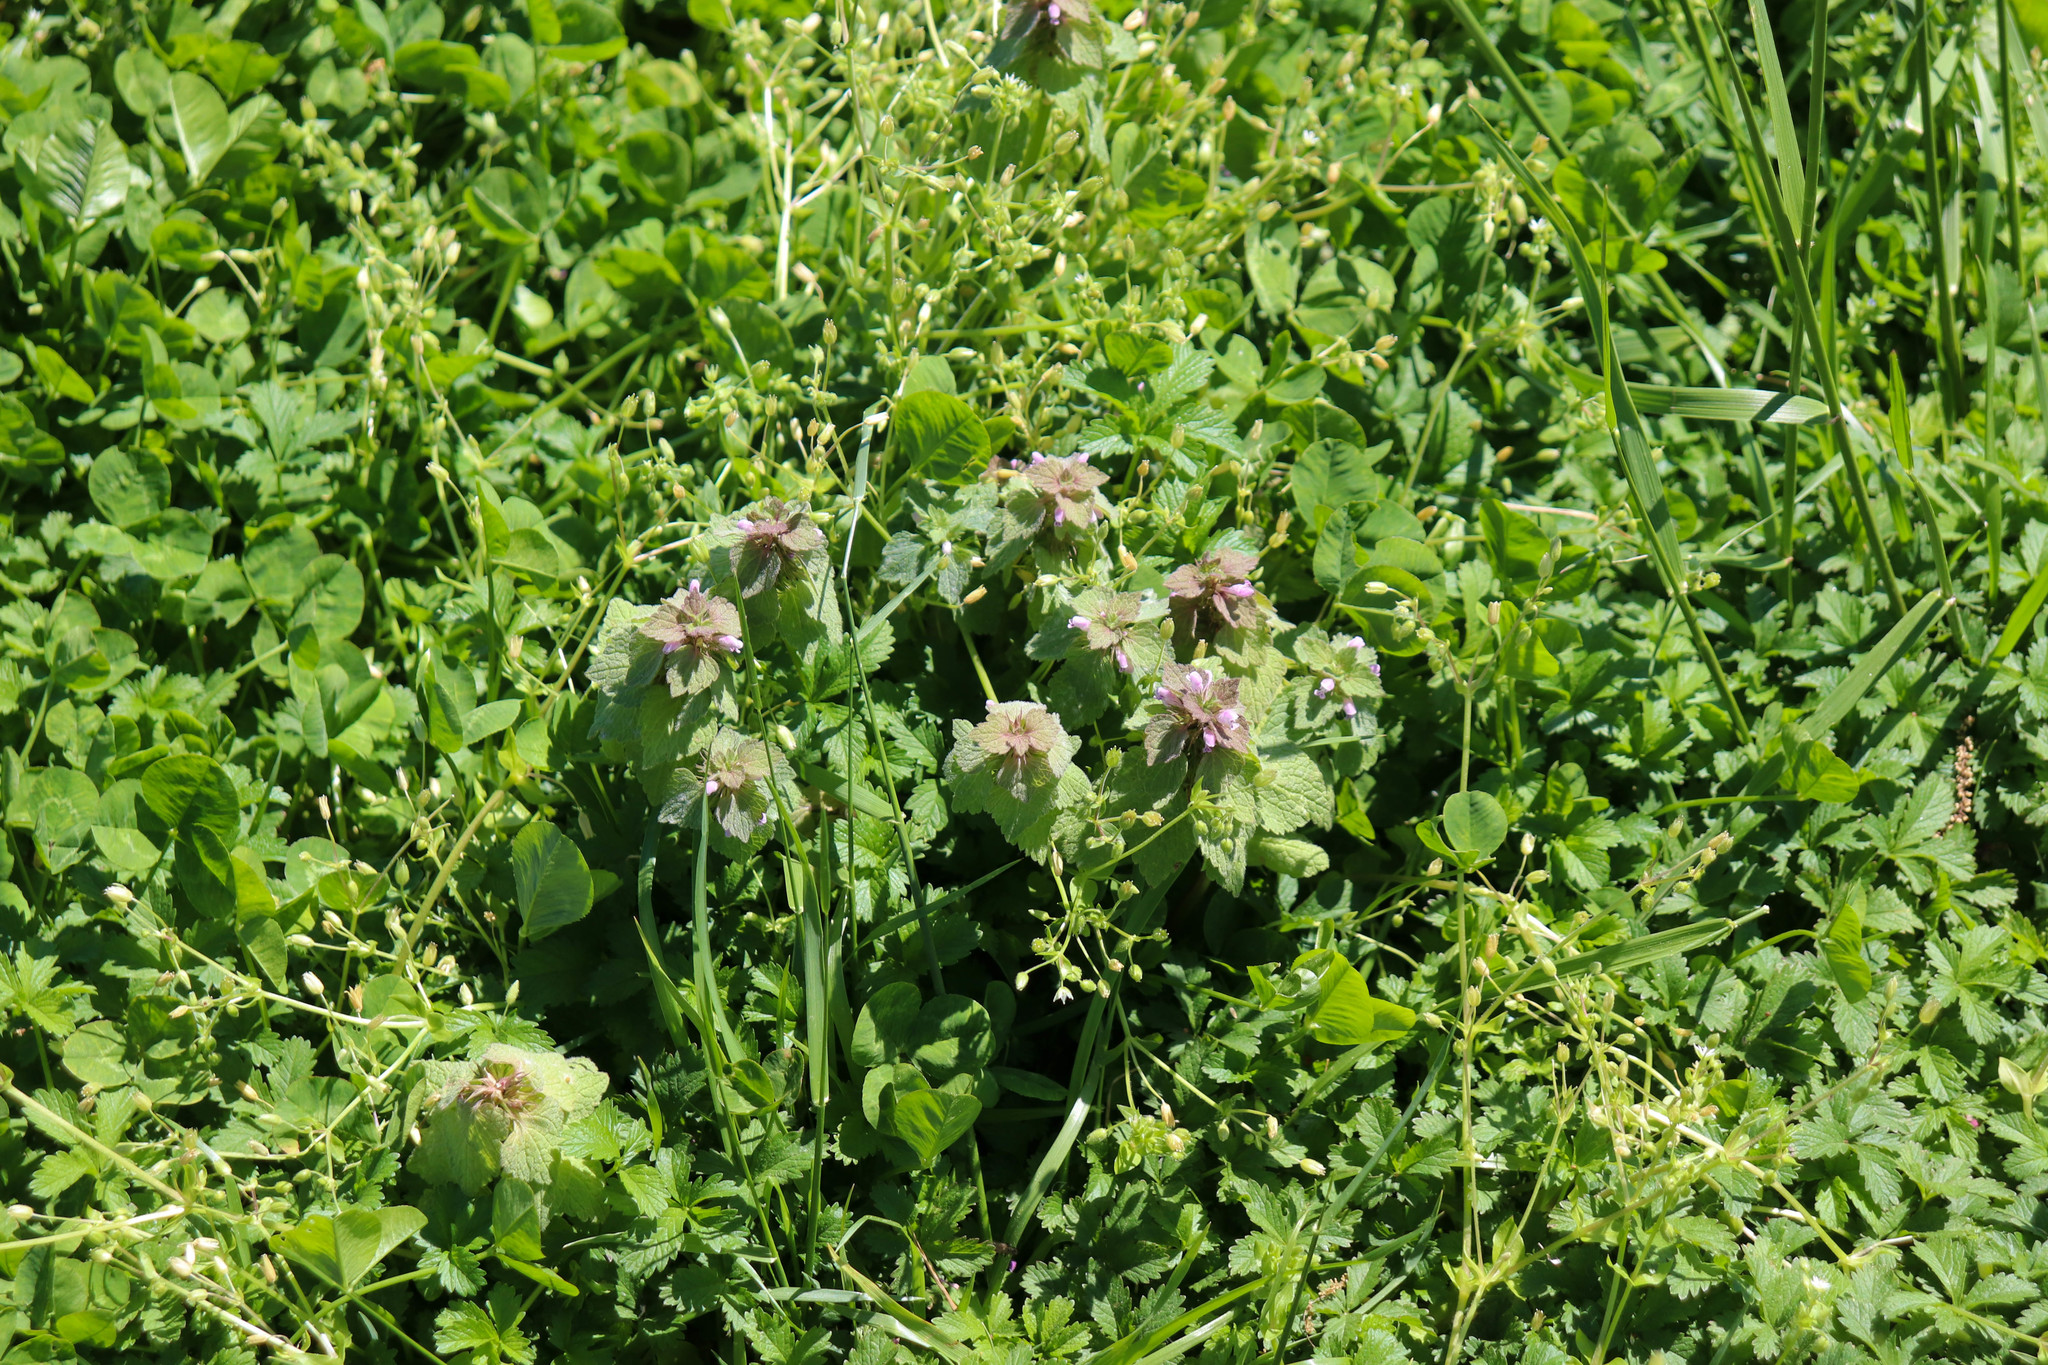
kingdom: Plantae
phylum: Tracheophyta
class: Magnoliopsida
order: Lamiales
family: Lamiaceae
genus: Lamium
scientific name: Lamium purpureum
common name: Red dead-nettle
